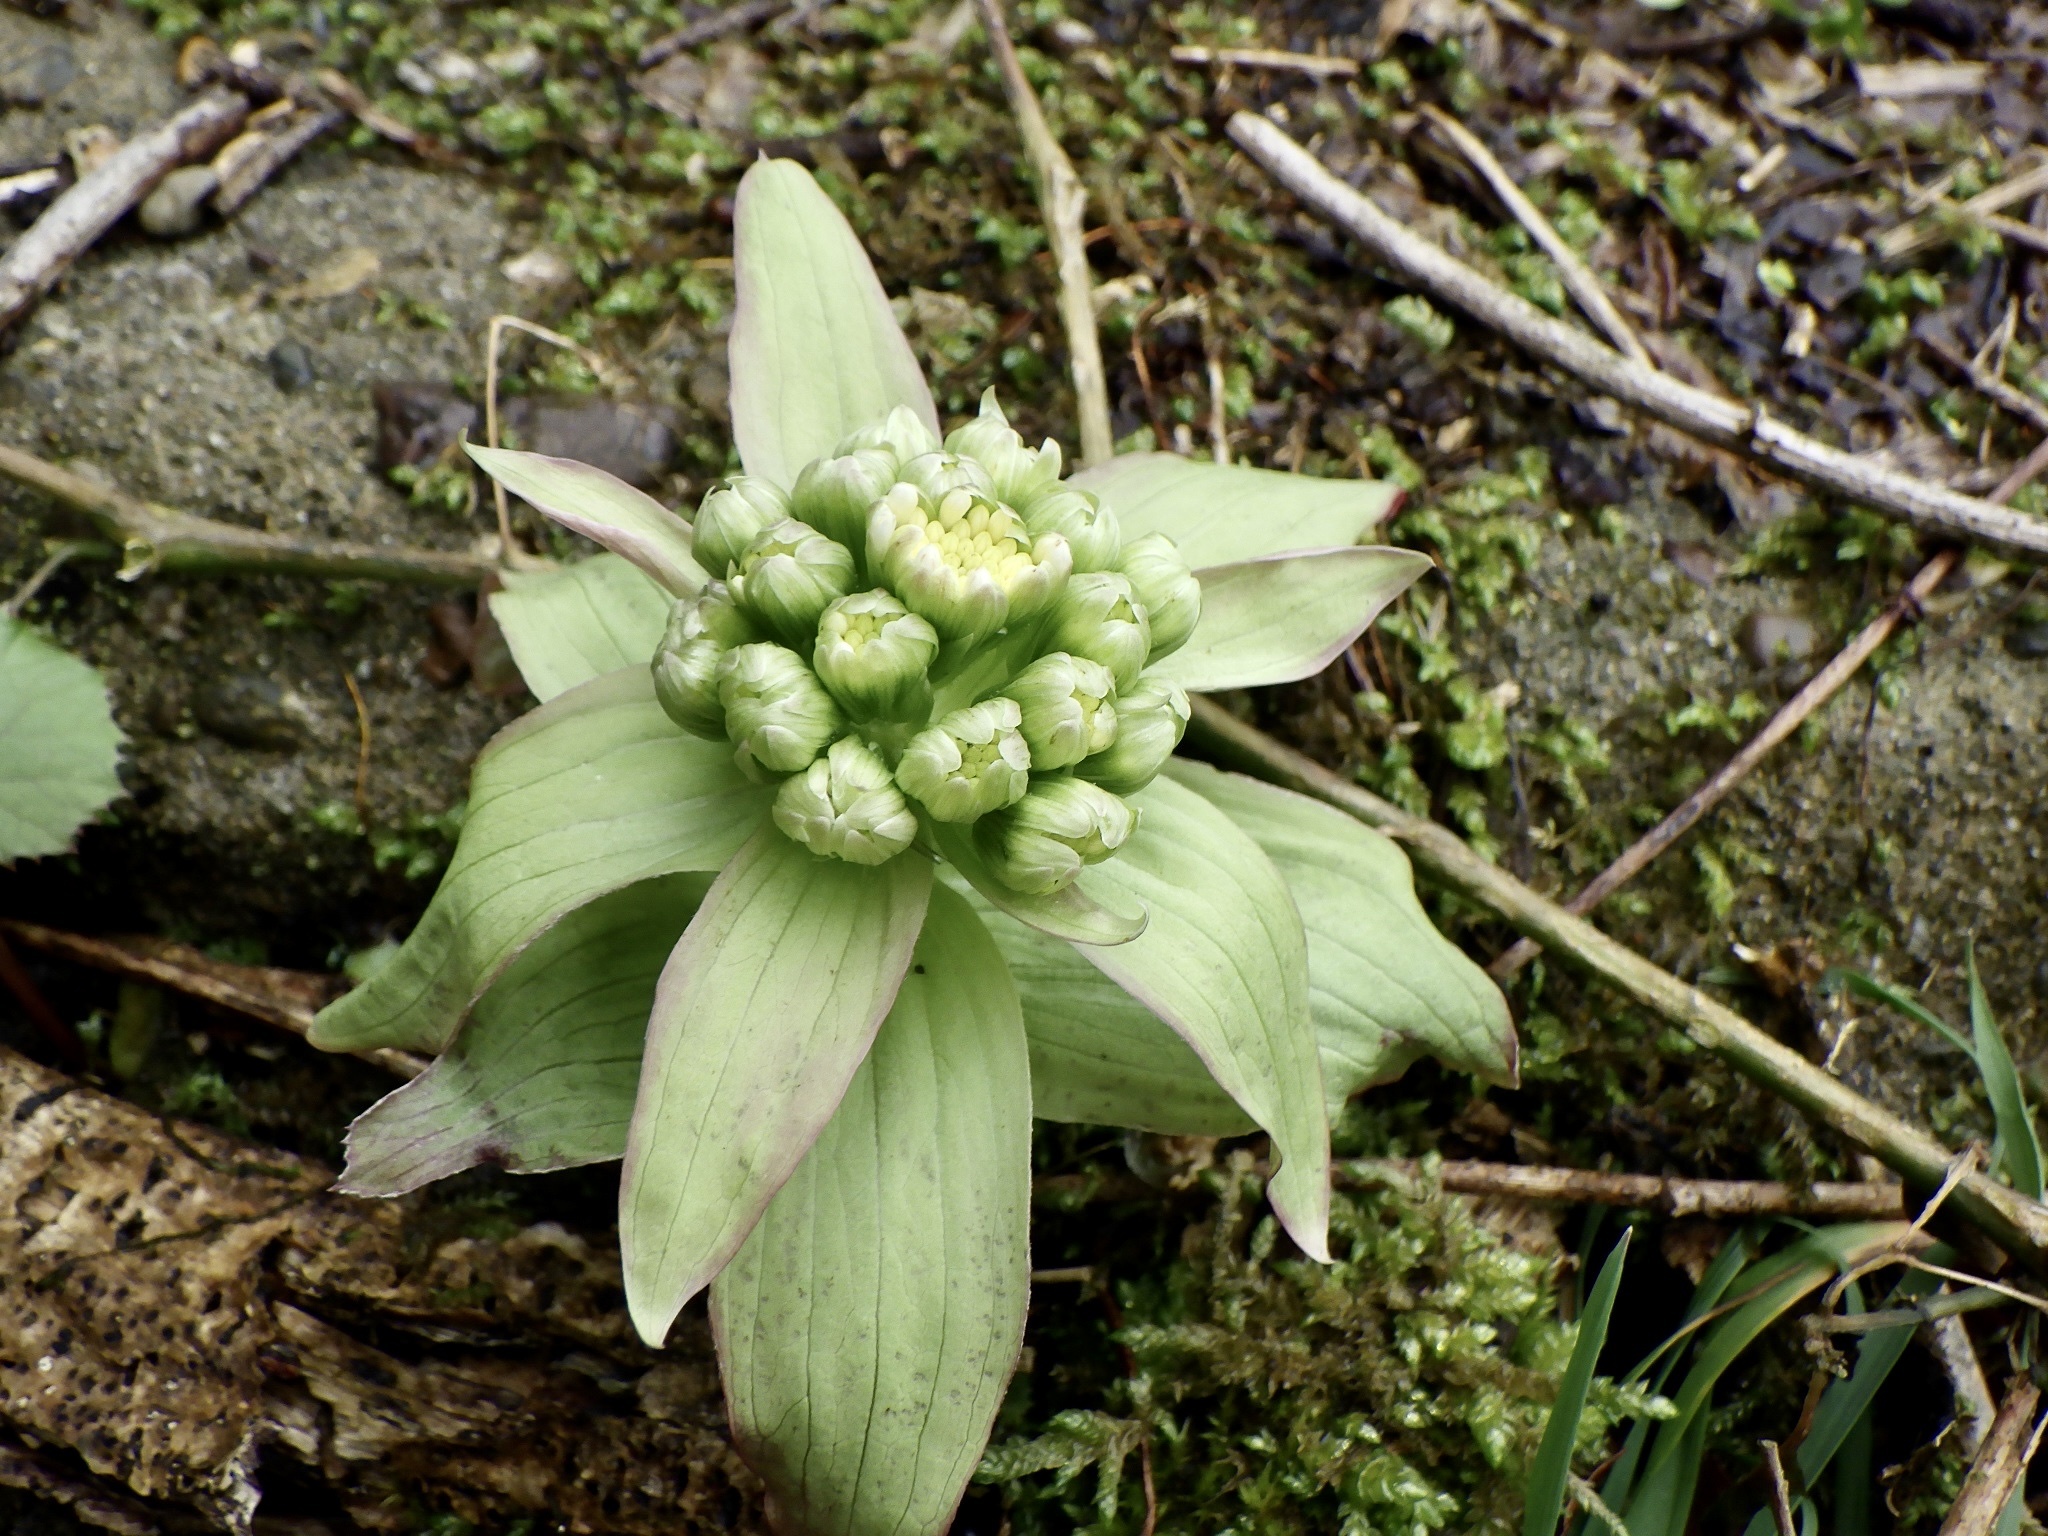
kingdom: Plantae
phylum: Tracheophyta
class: Magnoliopsida
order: Asterales
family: Asteraceae
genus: Petasites
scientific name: Petasites japonicus
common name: Giant butterbur
